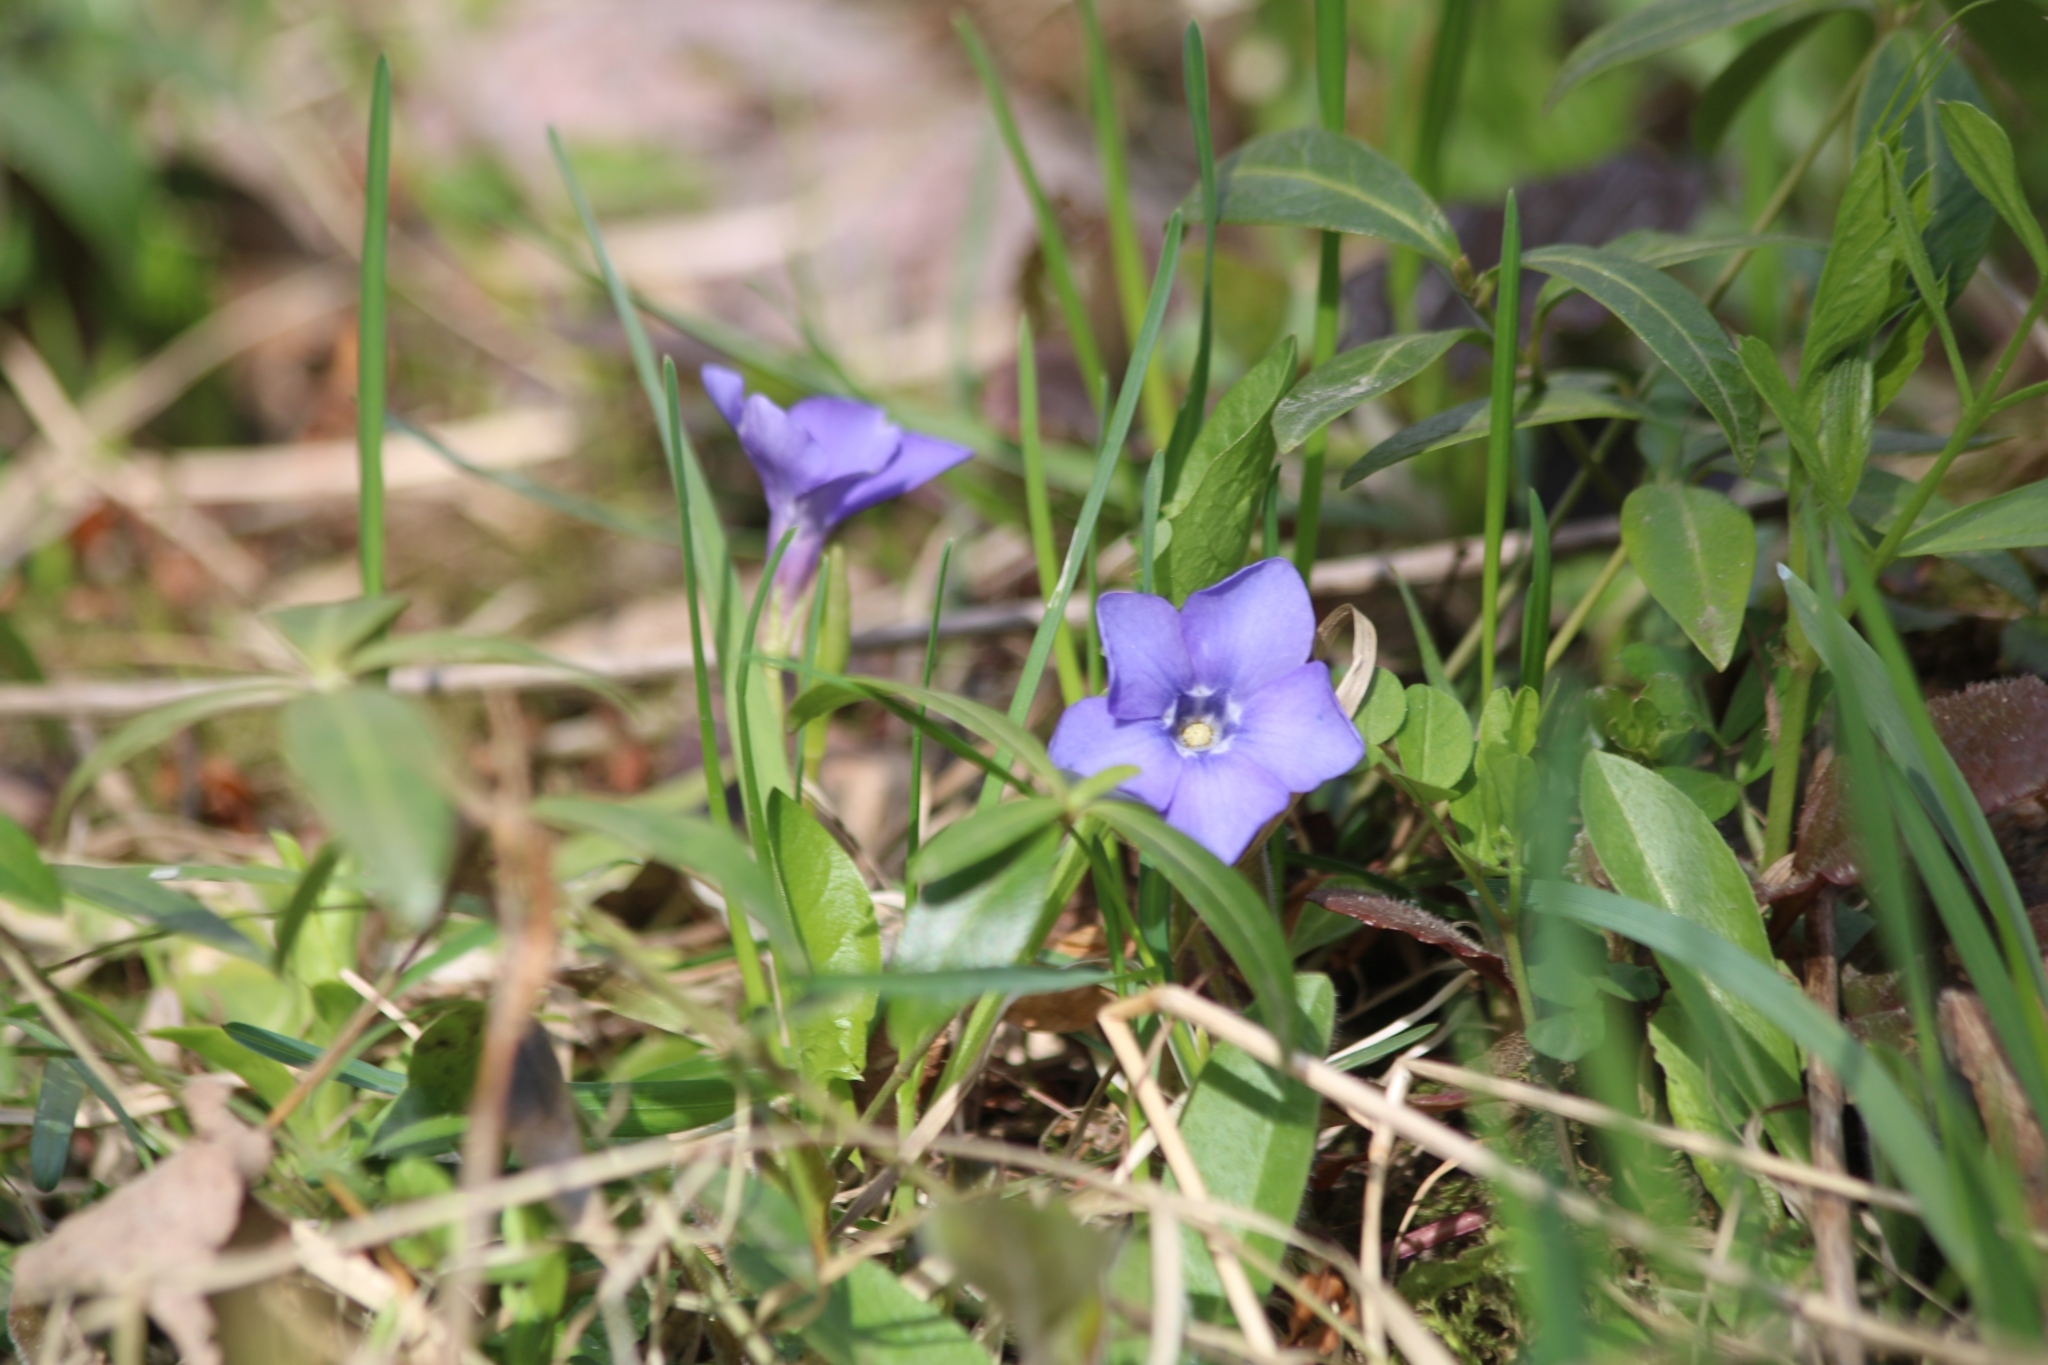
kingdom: Plantae
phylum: Tracheophyta
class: Magnoliopsida
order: Gentianales
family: Apocynaceae
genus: Vinca
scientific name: Vinca minor
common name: Lesser periwinkle
